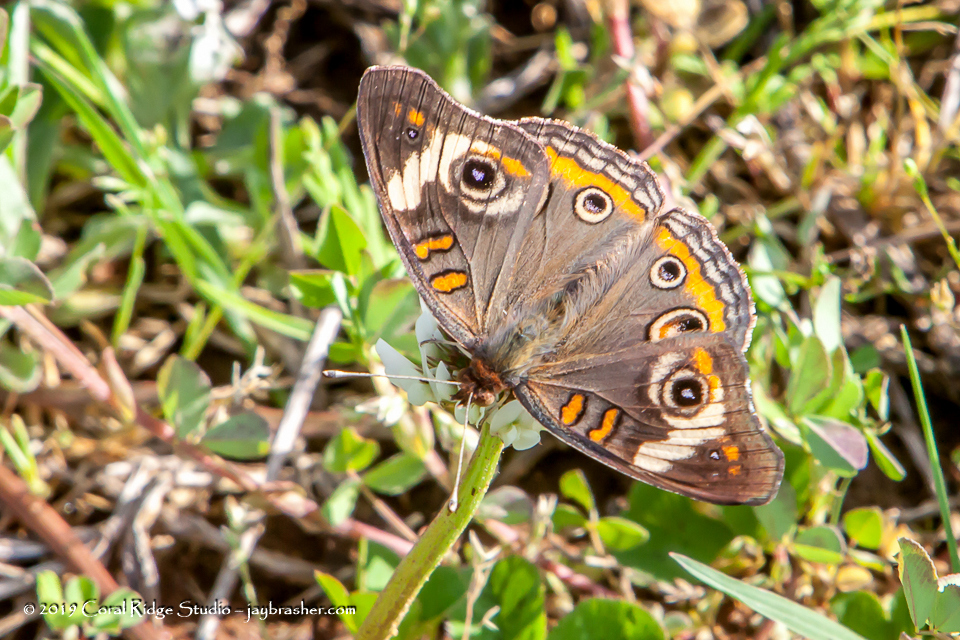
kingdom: Animalia
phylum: Arthropoda
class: Insecta
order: Lepidoptera
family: Nymphalidae
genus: Junonia
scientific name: Junonia coenia
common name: Common buckeye
